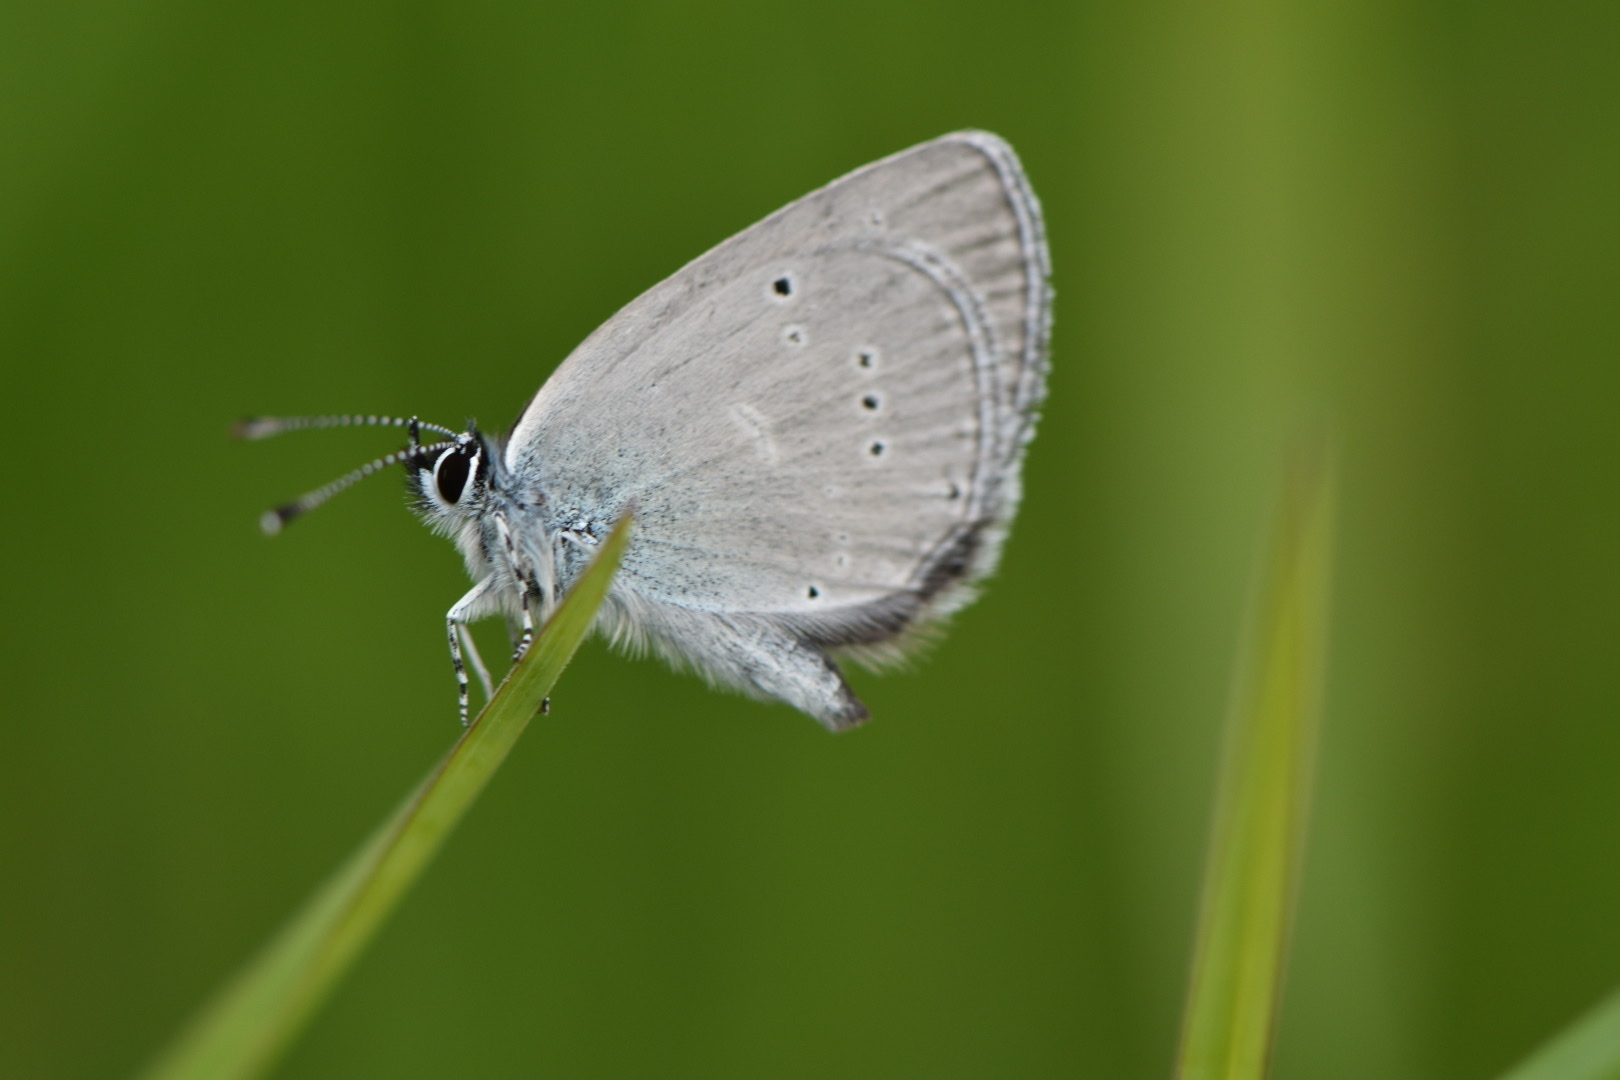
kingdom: Animalia
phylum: Arthropoda
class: Insecta
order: Lepidoptera
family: Lycaenidae
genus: Cupido
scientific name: Cupido minimus
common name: Small blue
